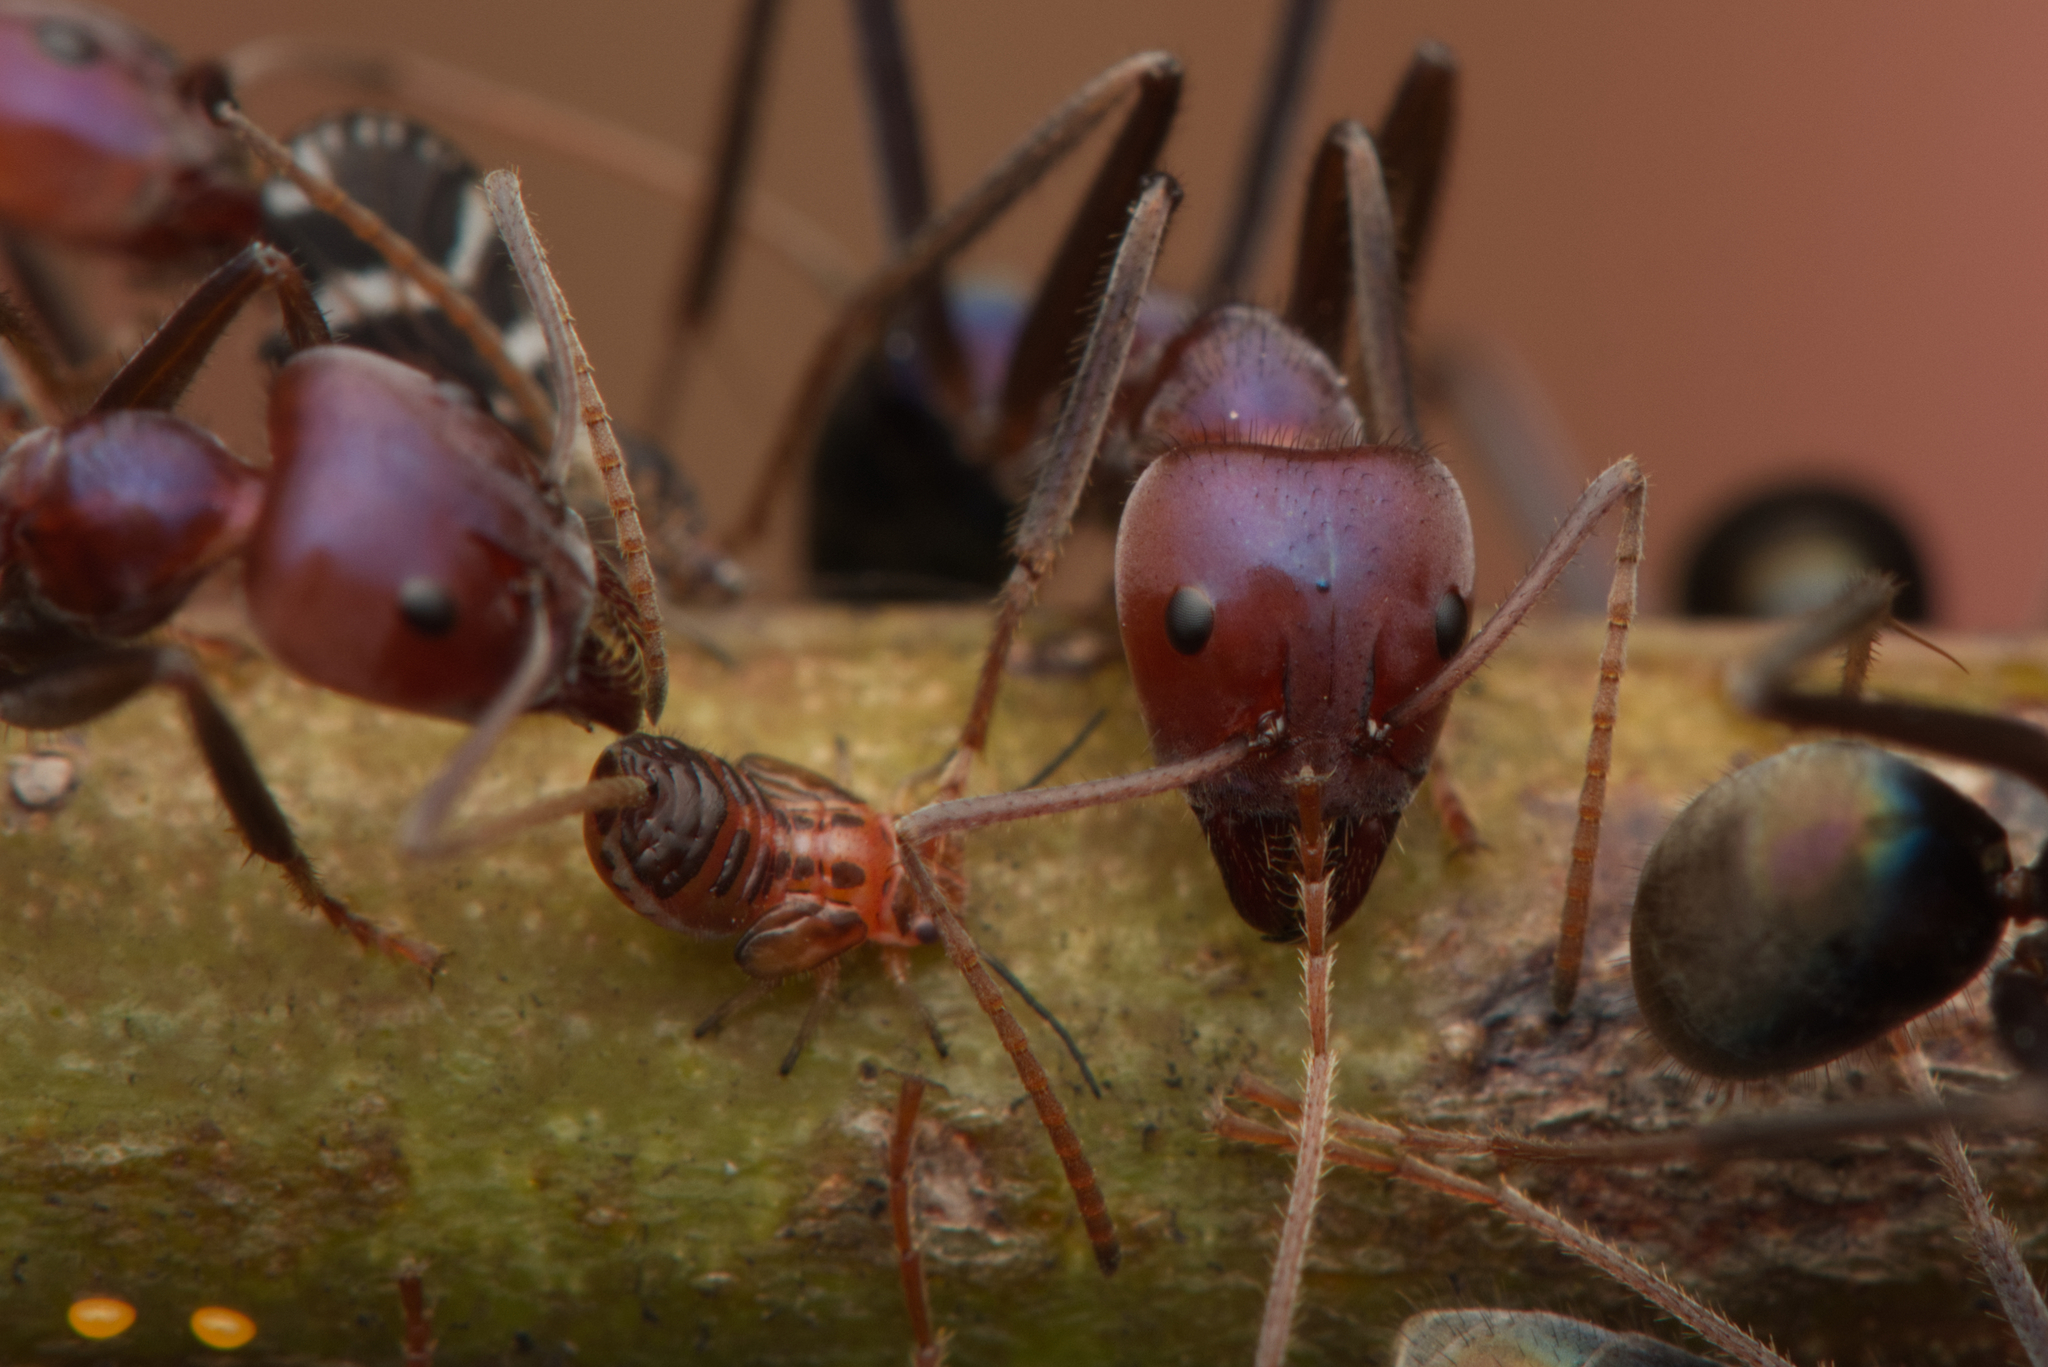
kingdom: Animalia
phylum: Arthropoda
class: Insecta
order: Hymenoptera
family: Formicidae
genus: Iridomyrmex
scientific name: Iridomyrmex purpureus
